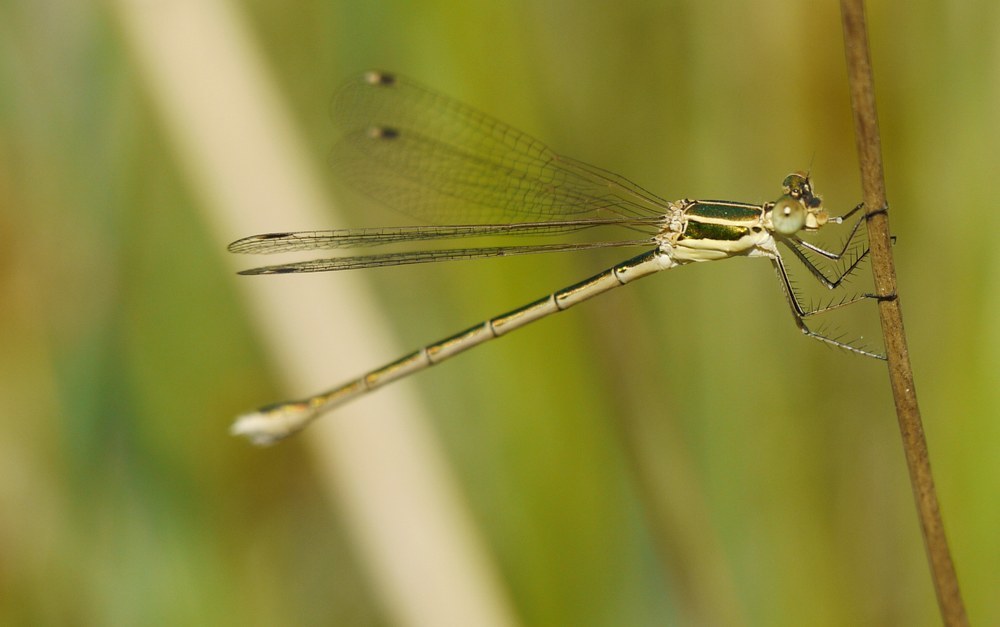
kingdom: Animalia
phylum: Arthropoda
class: Insecta
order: Odonata
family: Lestidae
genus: Lestes
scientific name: Lestes barbarus
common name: Migrant spreadwing
